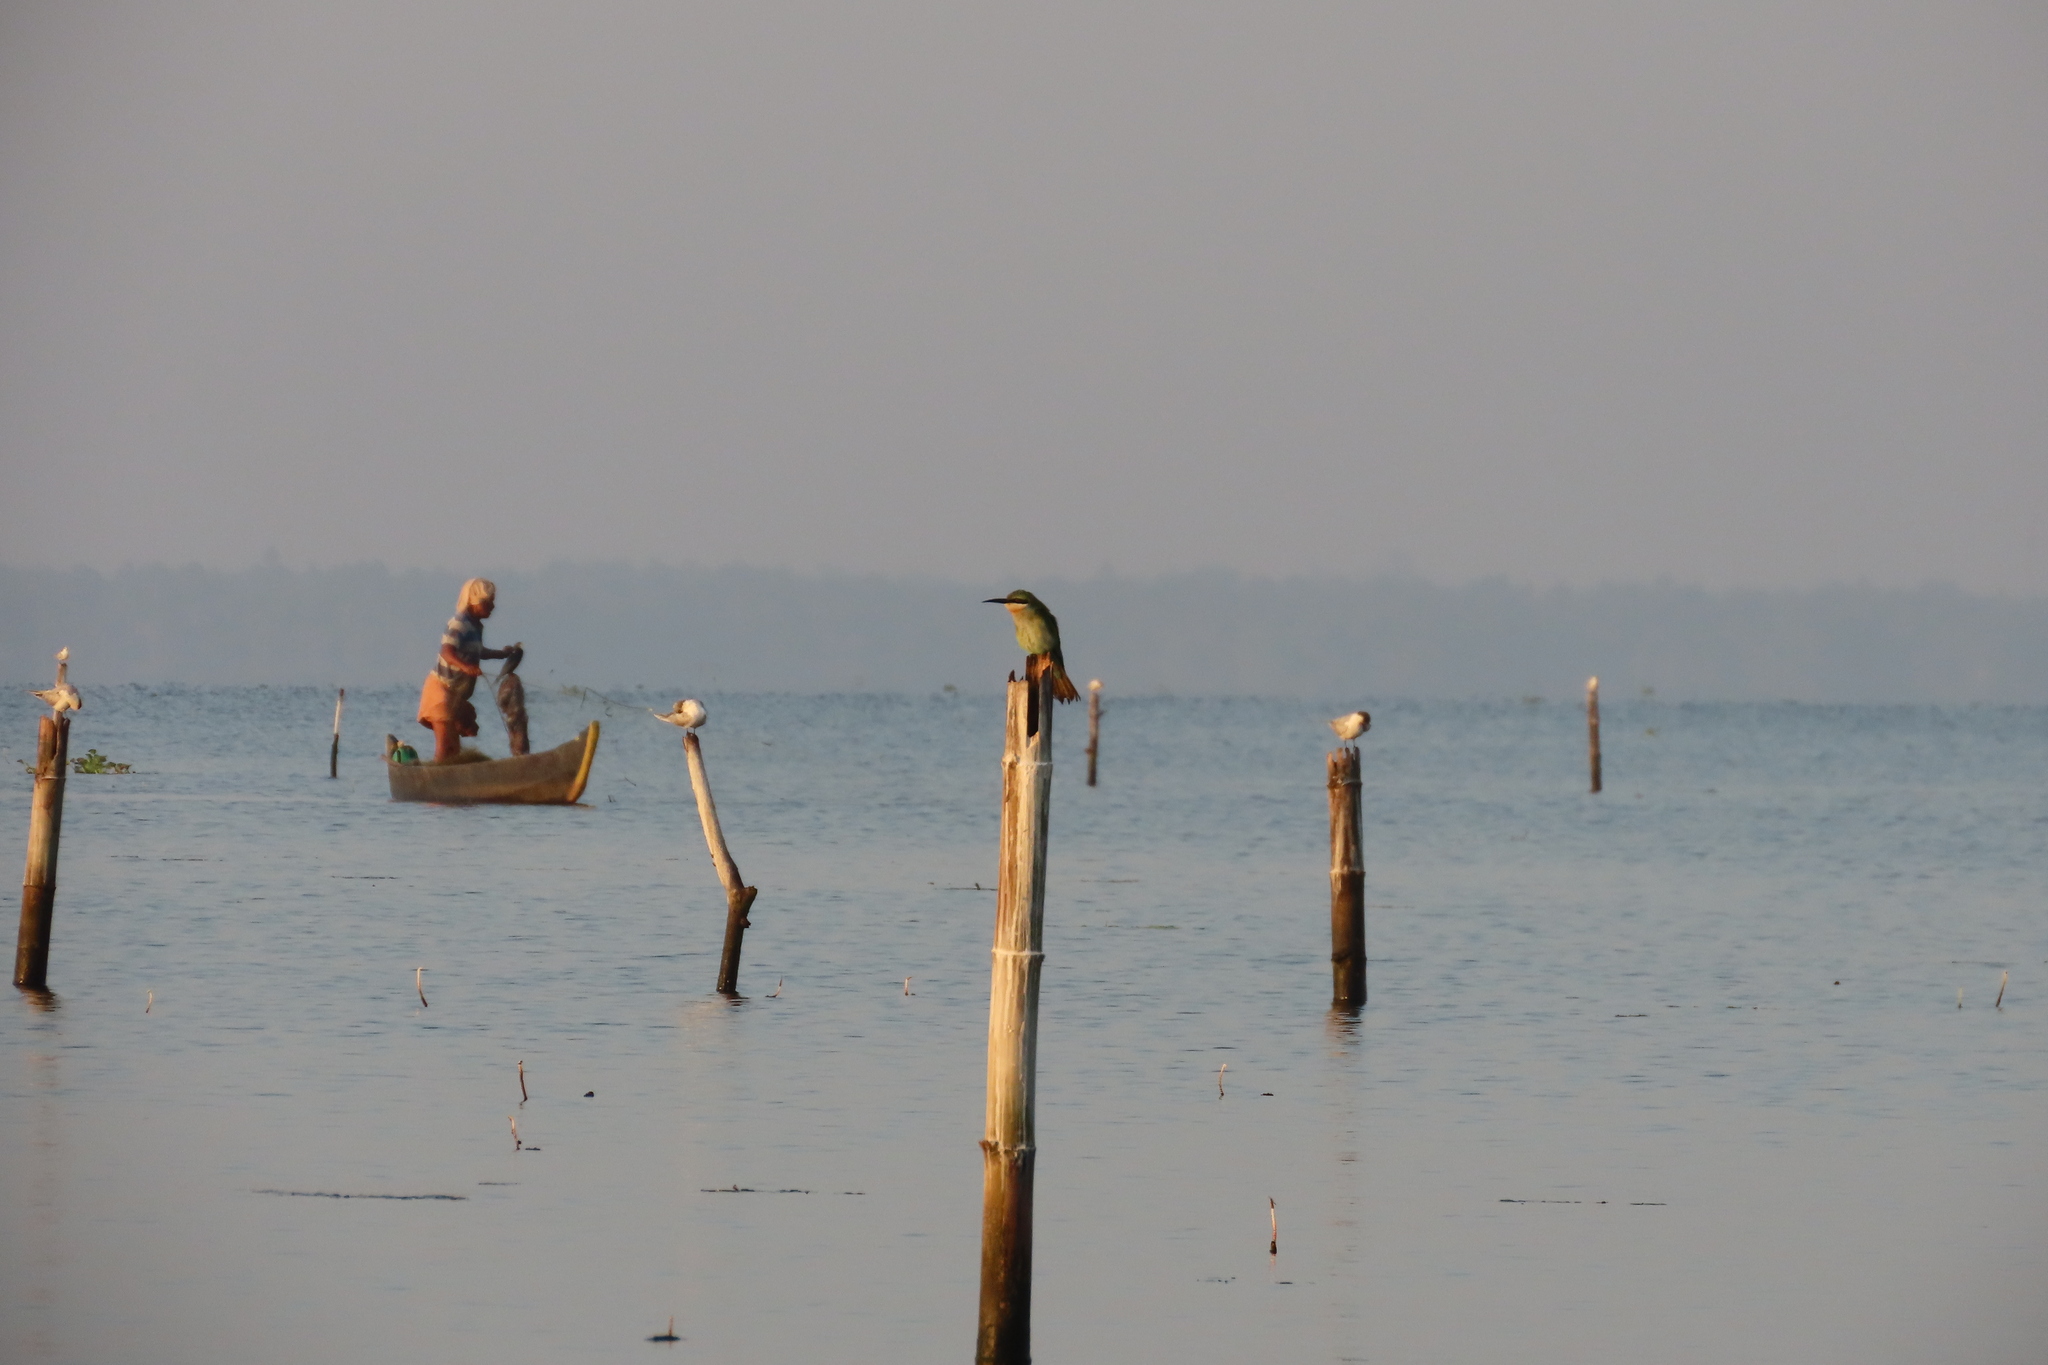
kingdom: Animalia
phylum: Chordata
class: Aves
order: Coraciiformes
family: Meropidae
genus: Merops
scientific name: Merops philippinus
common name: Blue-tailed bee-eater
